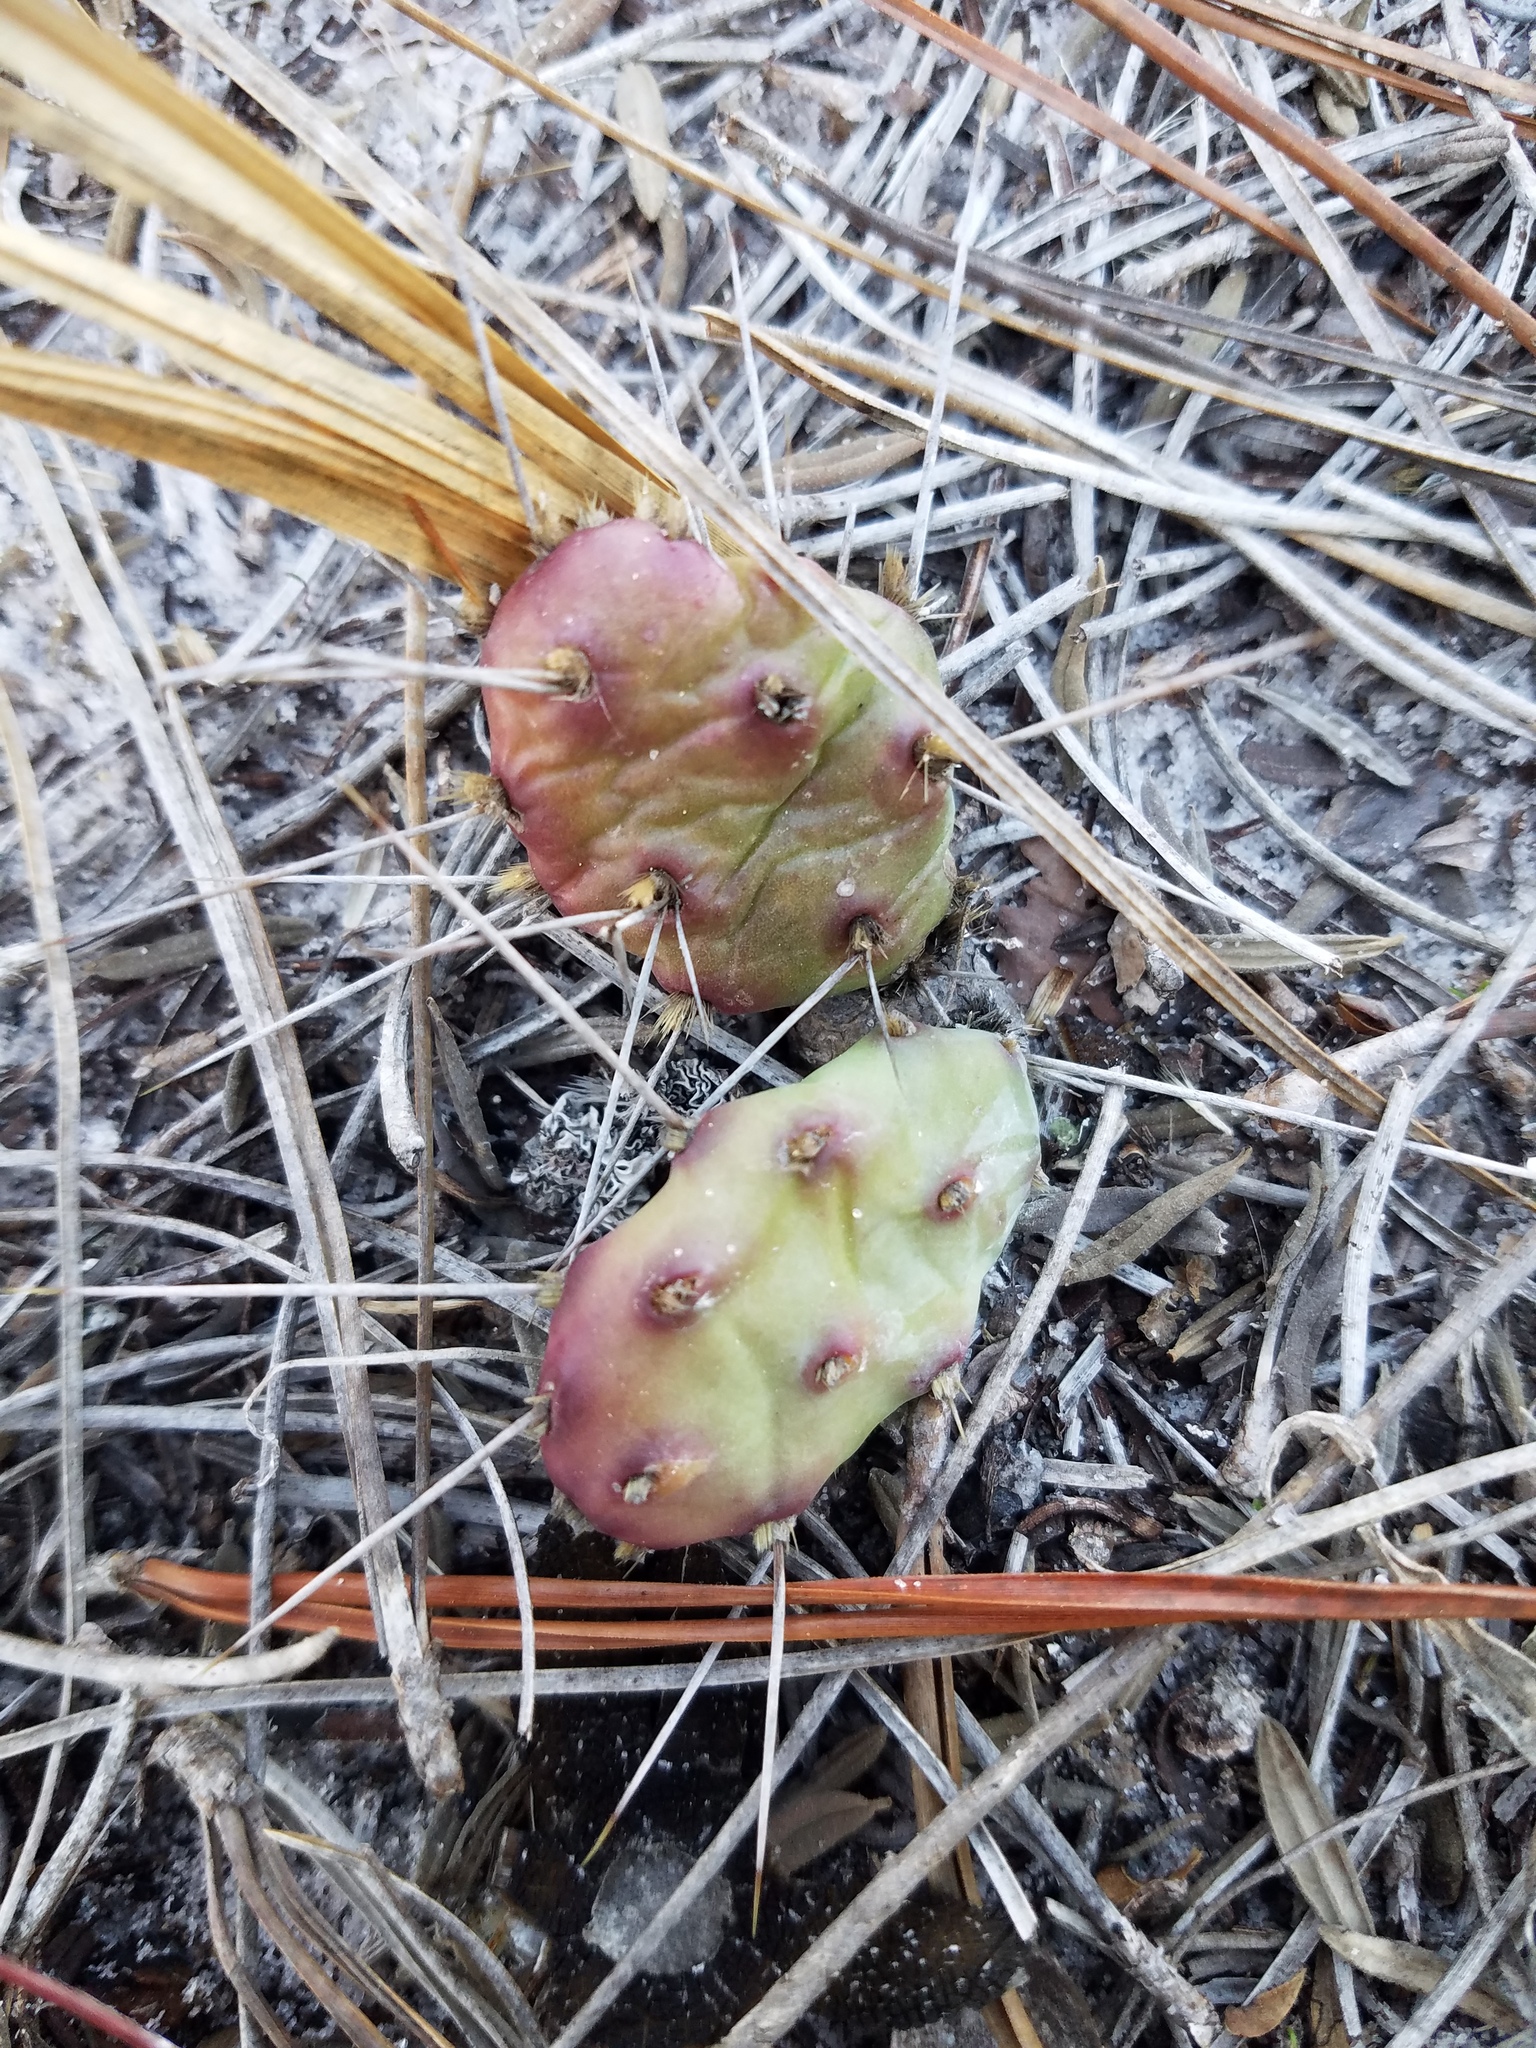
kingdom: Plantae
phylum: Tracheophyta
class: Magnoliopsida
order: Caryophyllales
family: Cactaceae
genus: Opuntia
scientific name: Opuntia drummondii
